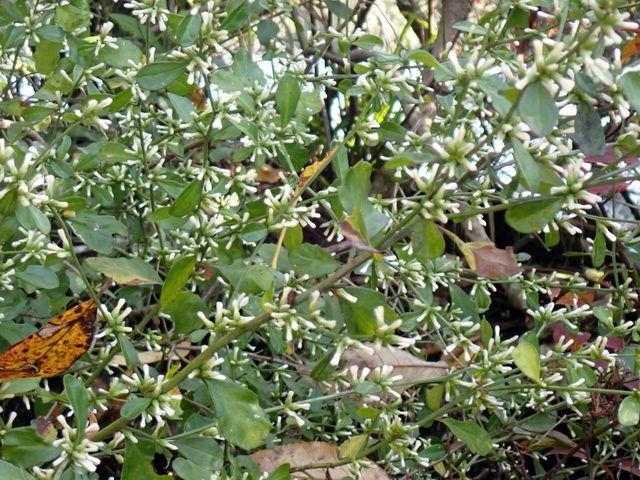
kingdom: Plantae
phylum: Tracheophyta
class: Magnoliopsida
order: Asterales
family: Asteraceae
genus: Baccharis
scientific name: Baccharis glomeruliflora
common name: Silverling groundsel bush
